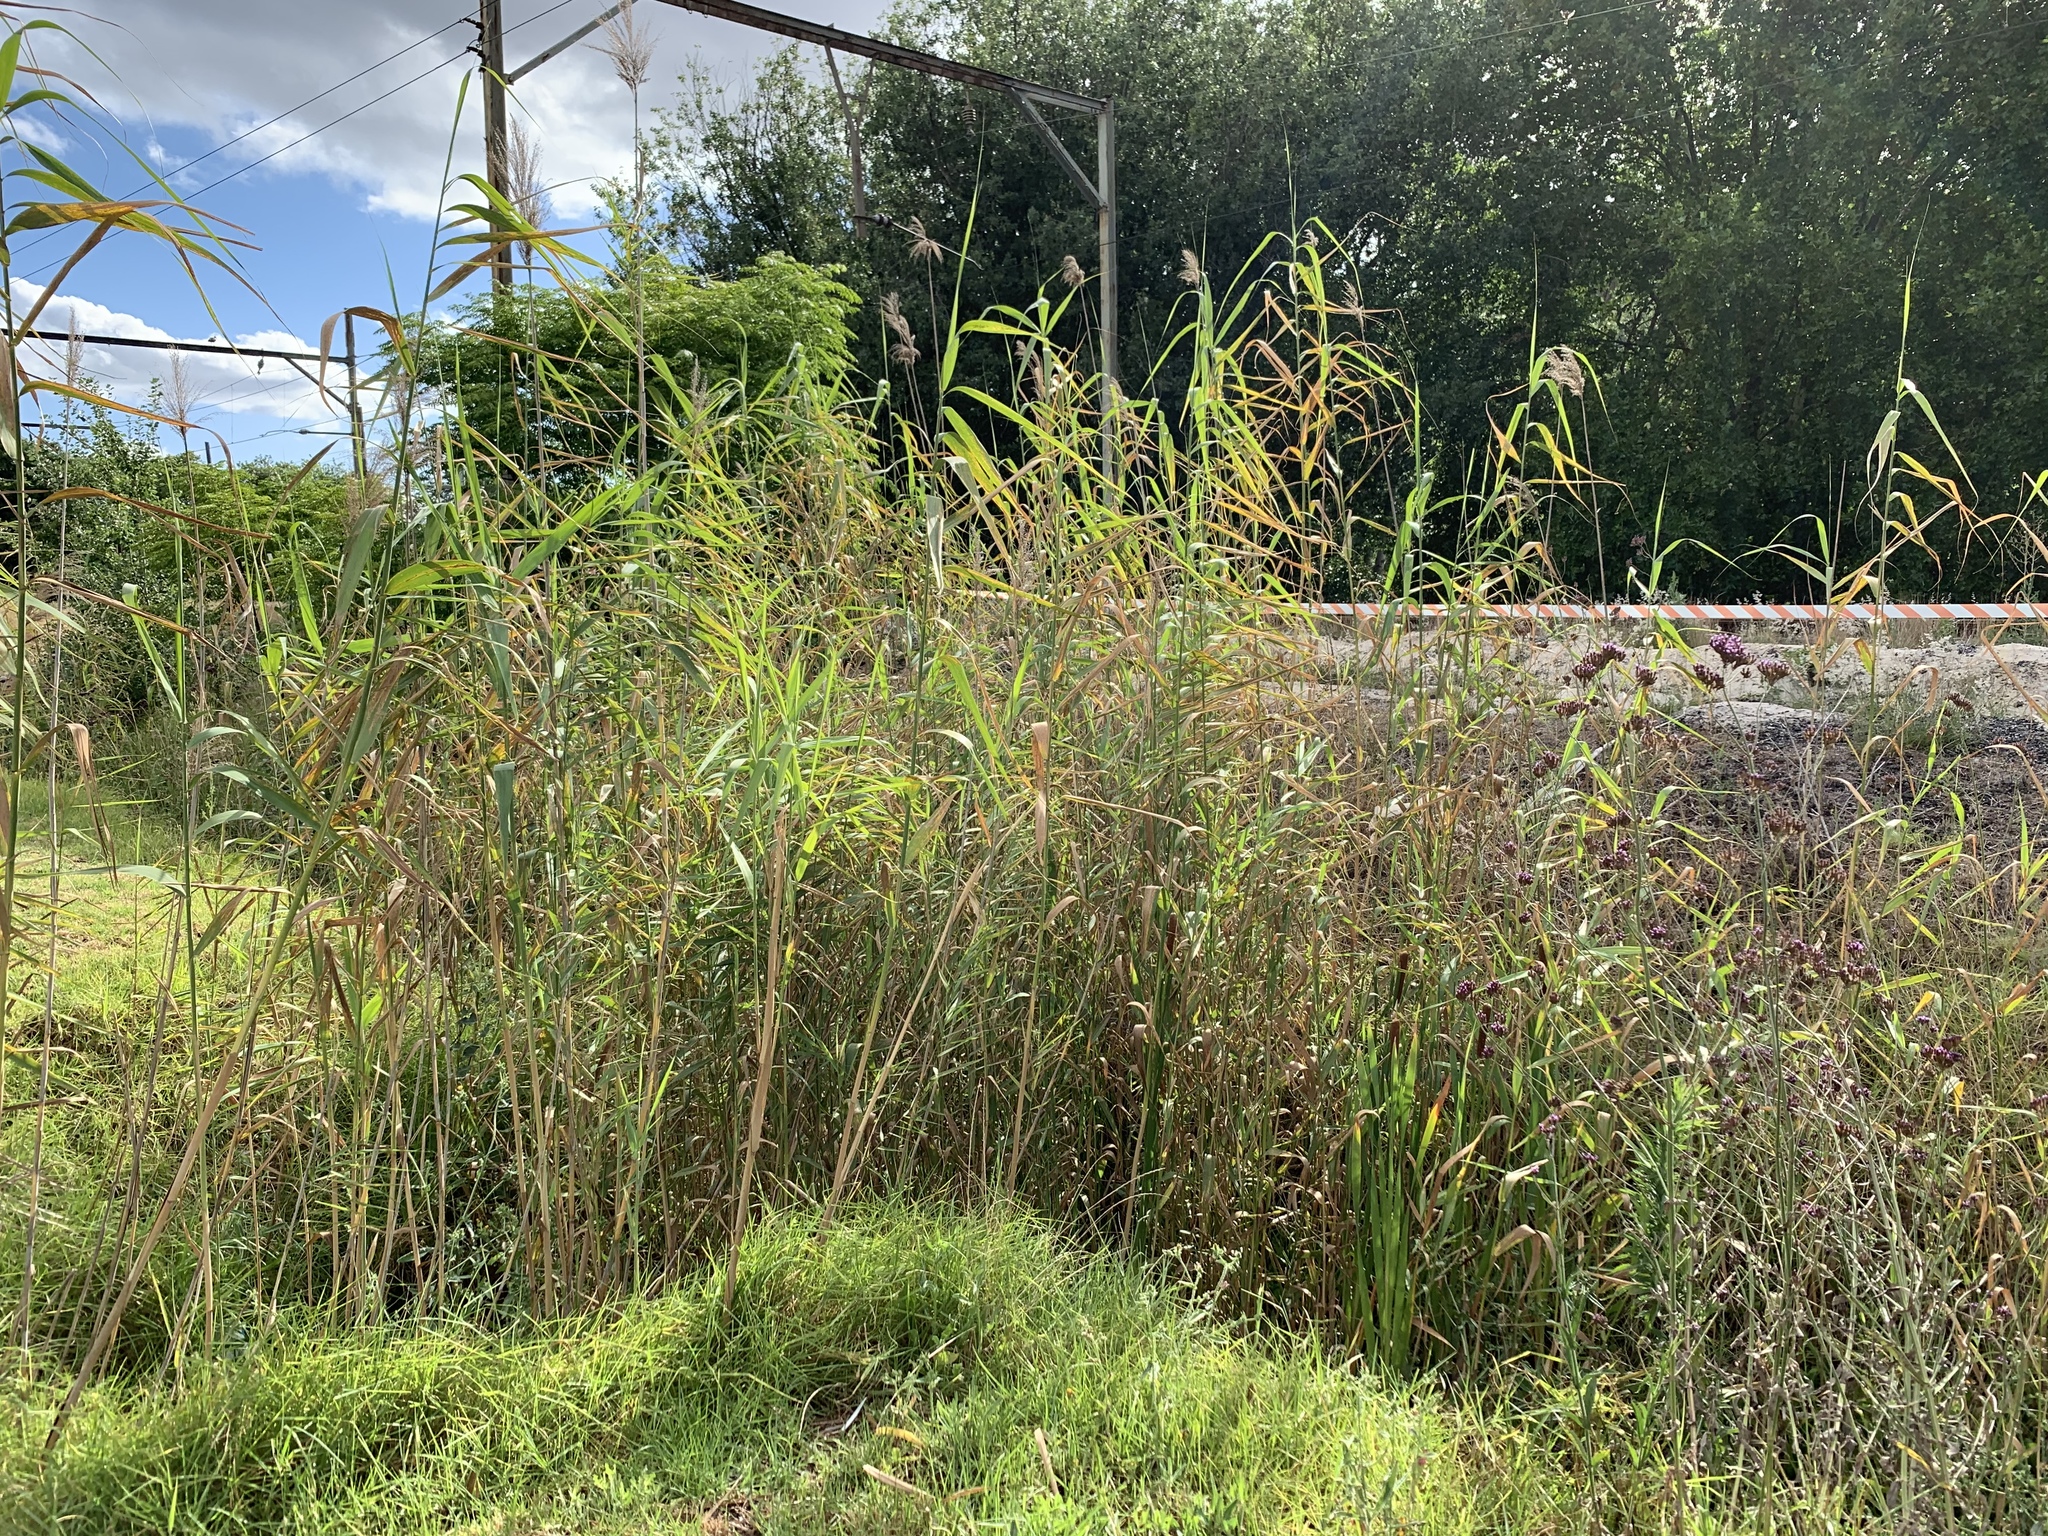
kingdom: Plantae
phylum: Tracheophyta
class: Liliopsida
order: Poales
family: Poaceae
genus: Phragmites
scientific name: Phragmites australis
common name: Common reed
